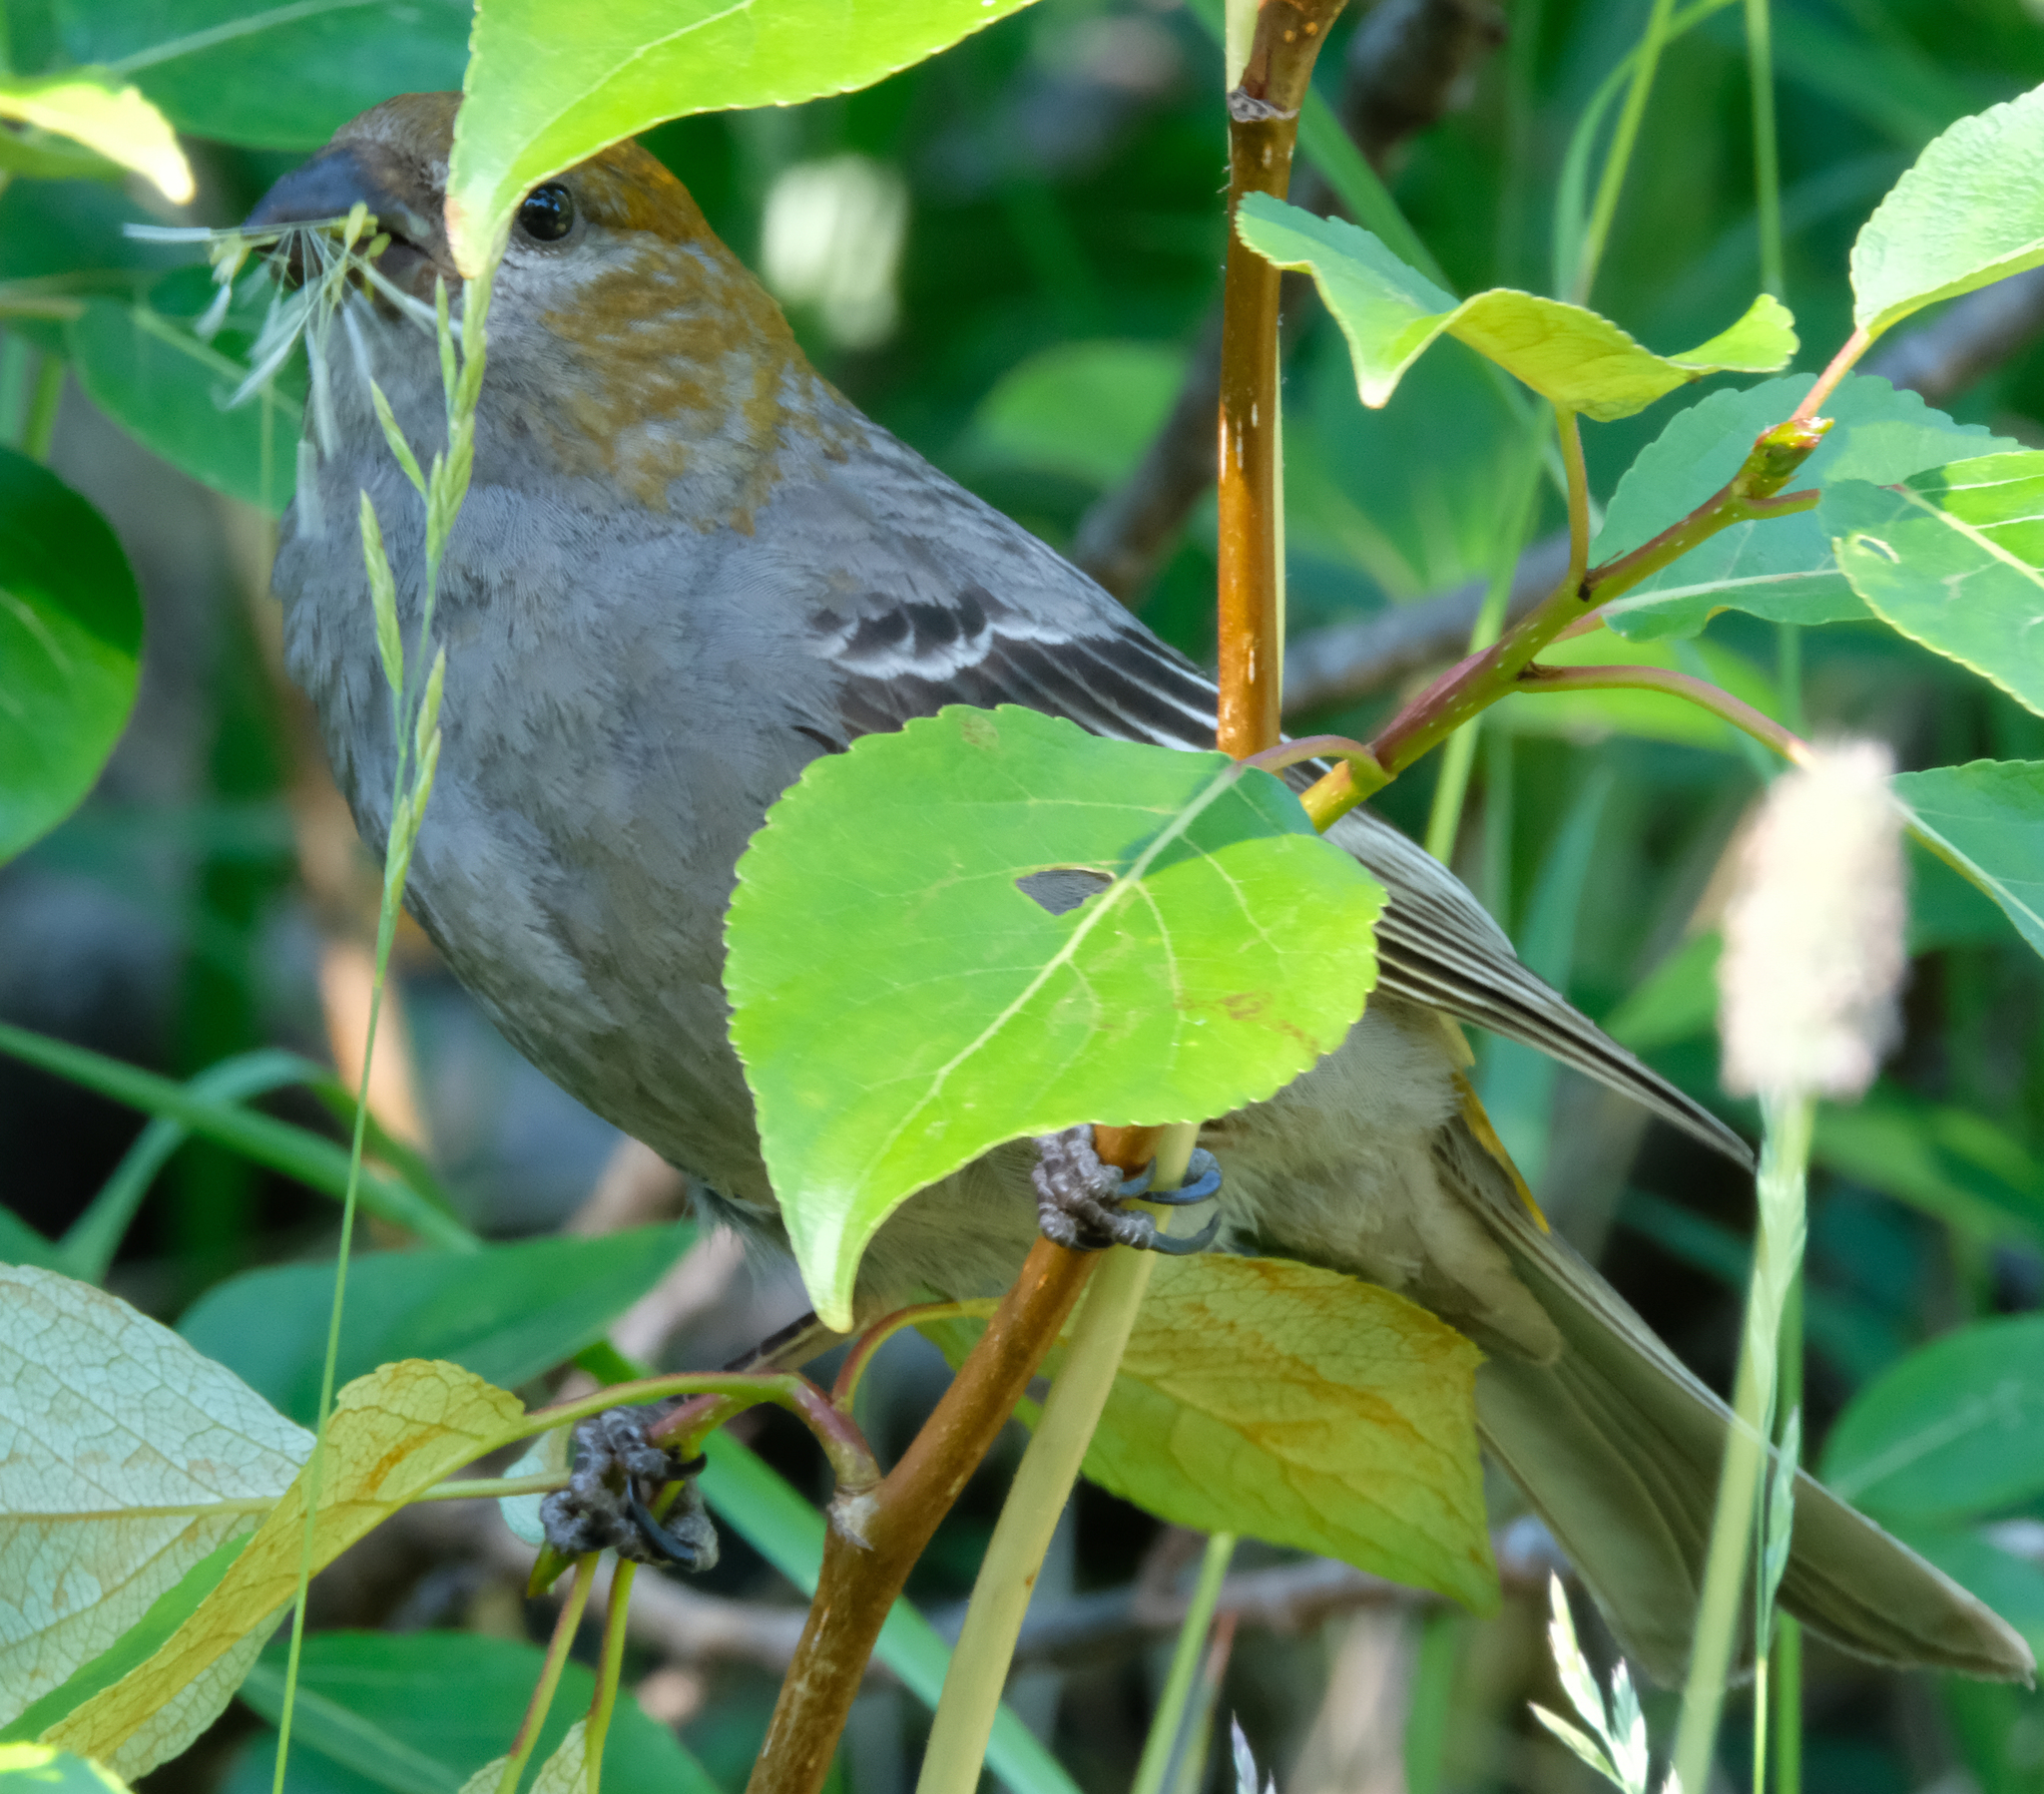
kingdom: Animalia
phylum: Chordata
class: Aves
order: Passeriformes
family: Fringillidae
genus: Pinicola
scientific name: Pinicola enucleator
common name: Pine grosbeak
